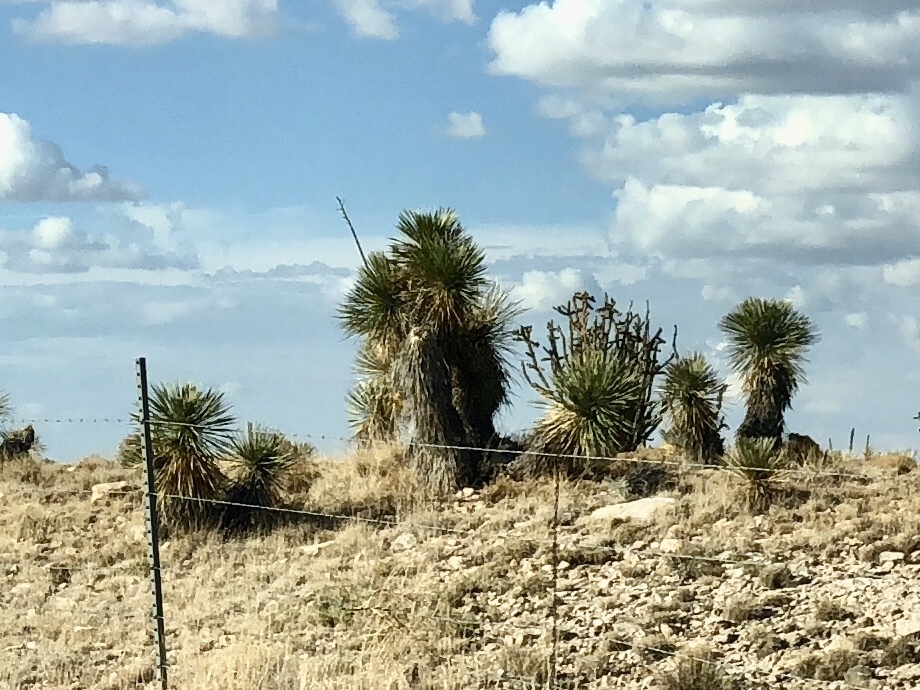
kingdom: Plantae
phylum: Tracheophyta
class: Liliopsida
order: Asparagales
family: Asparagaceae
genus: Yucca
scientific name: Yucca elata
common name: Palmella
